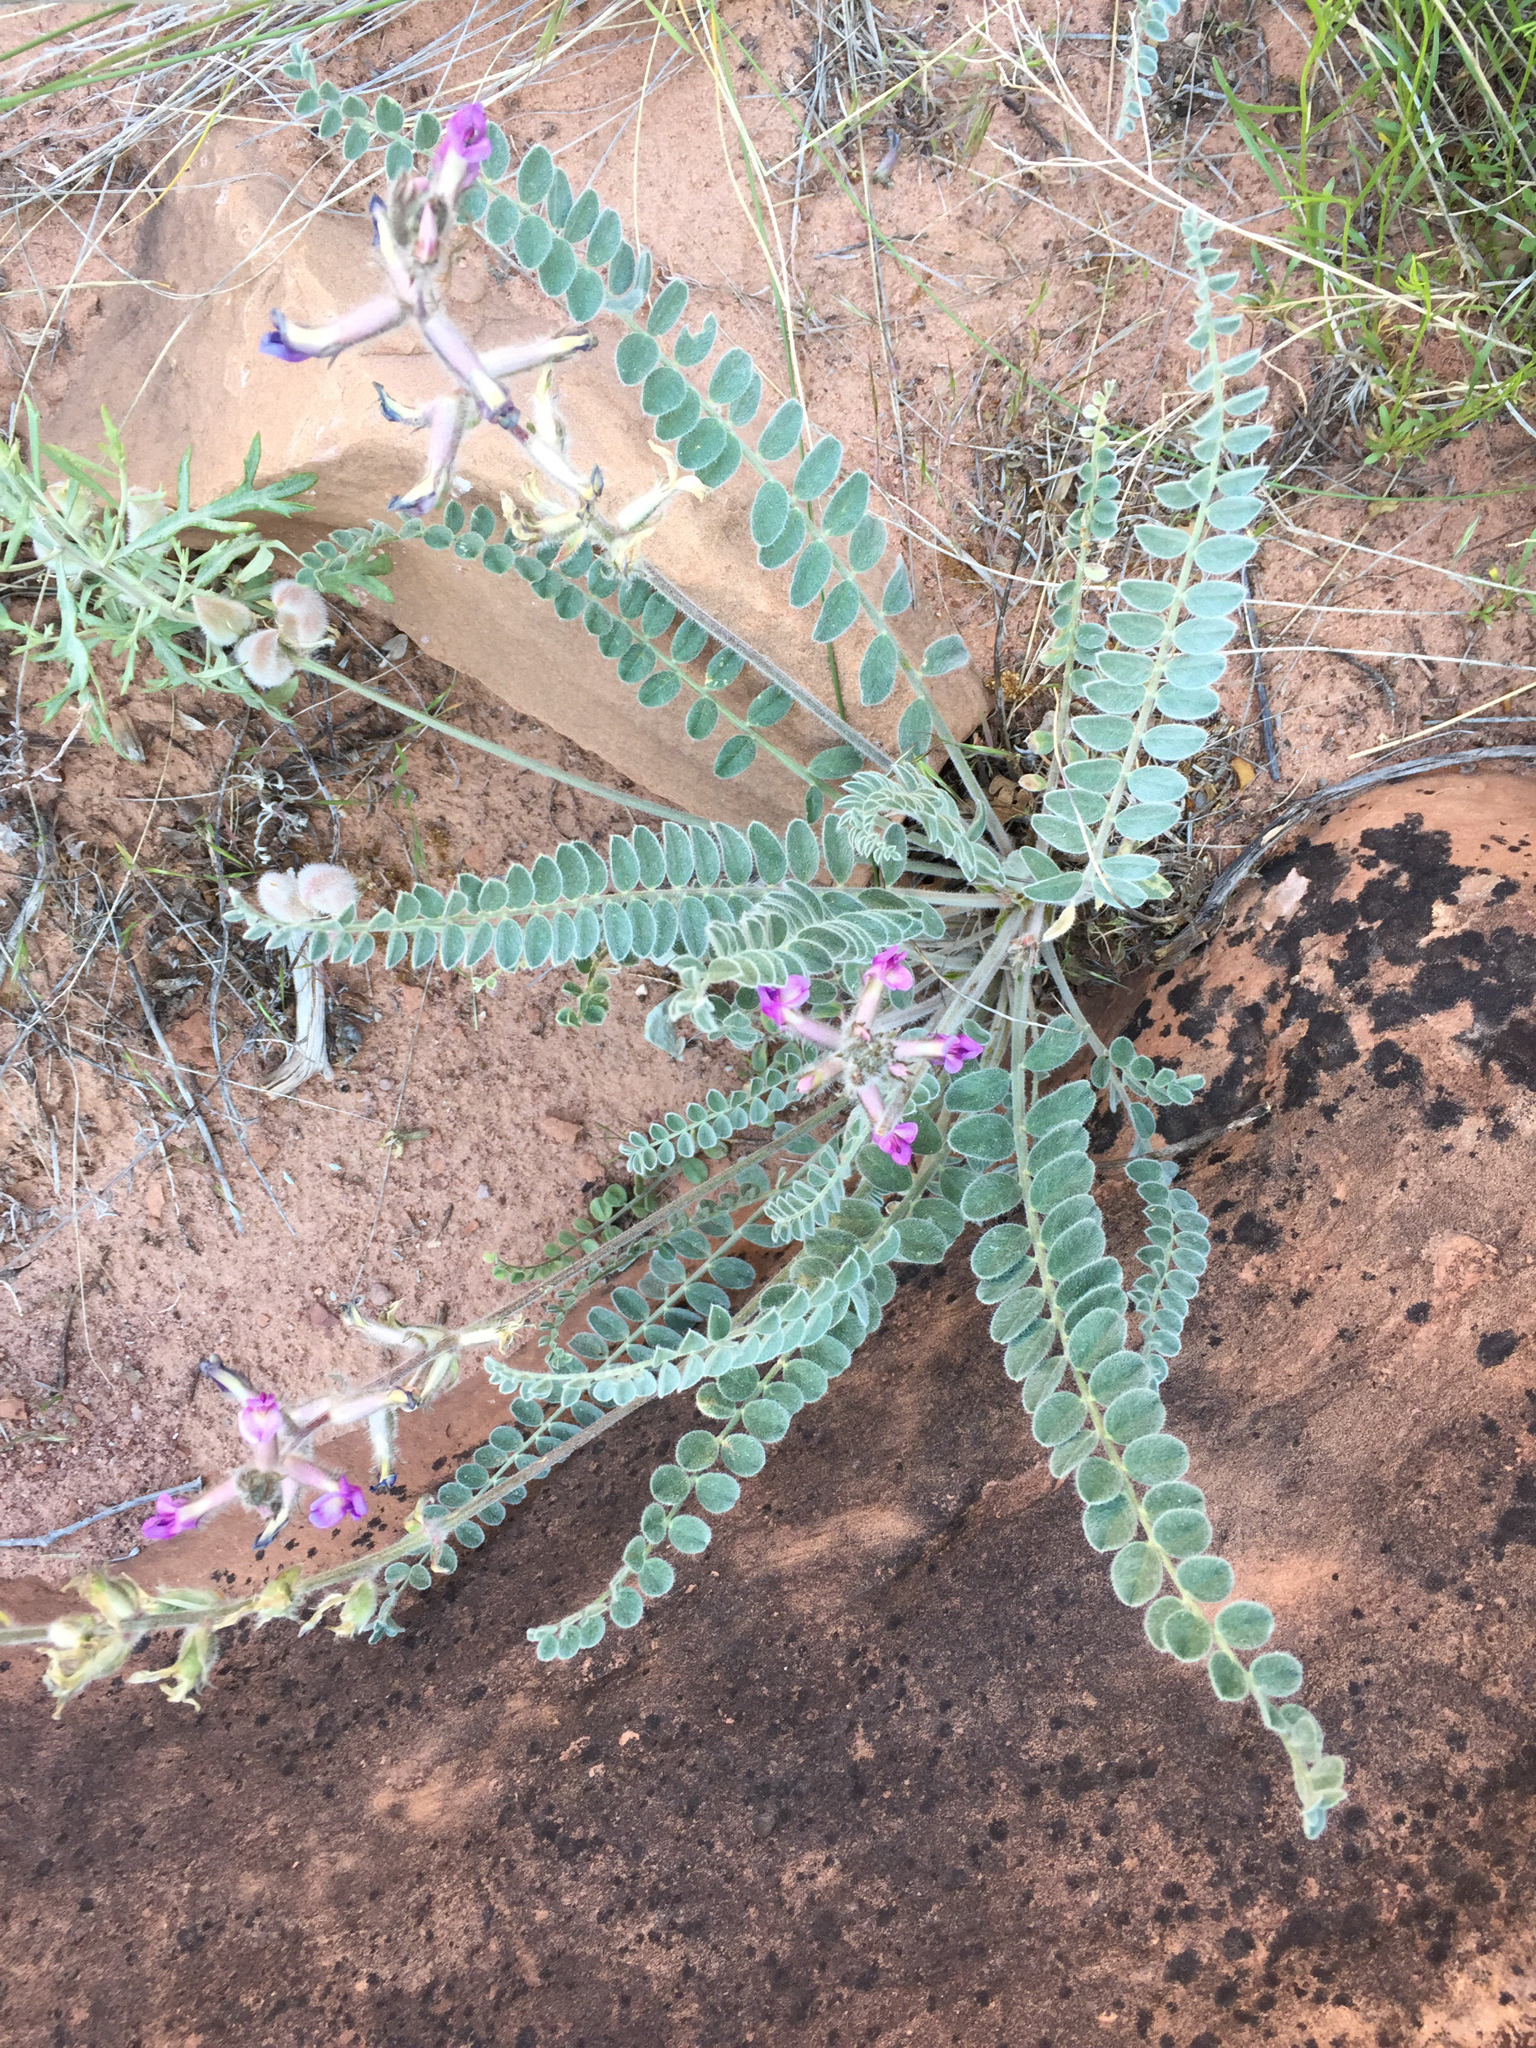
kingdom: Plantae
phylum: Tracheophyta
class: Magnoliopsida
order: Fabales
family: Fabaceae
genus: Astragalus
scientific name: Astragalus mollissimus
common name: Woolly locoweed
